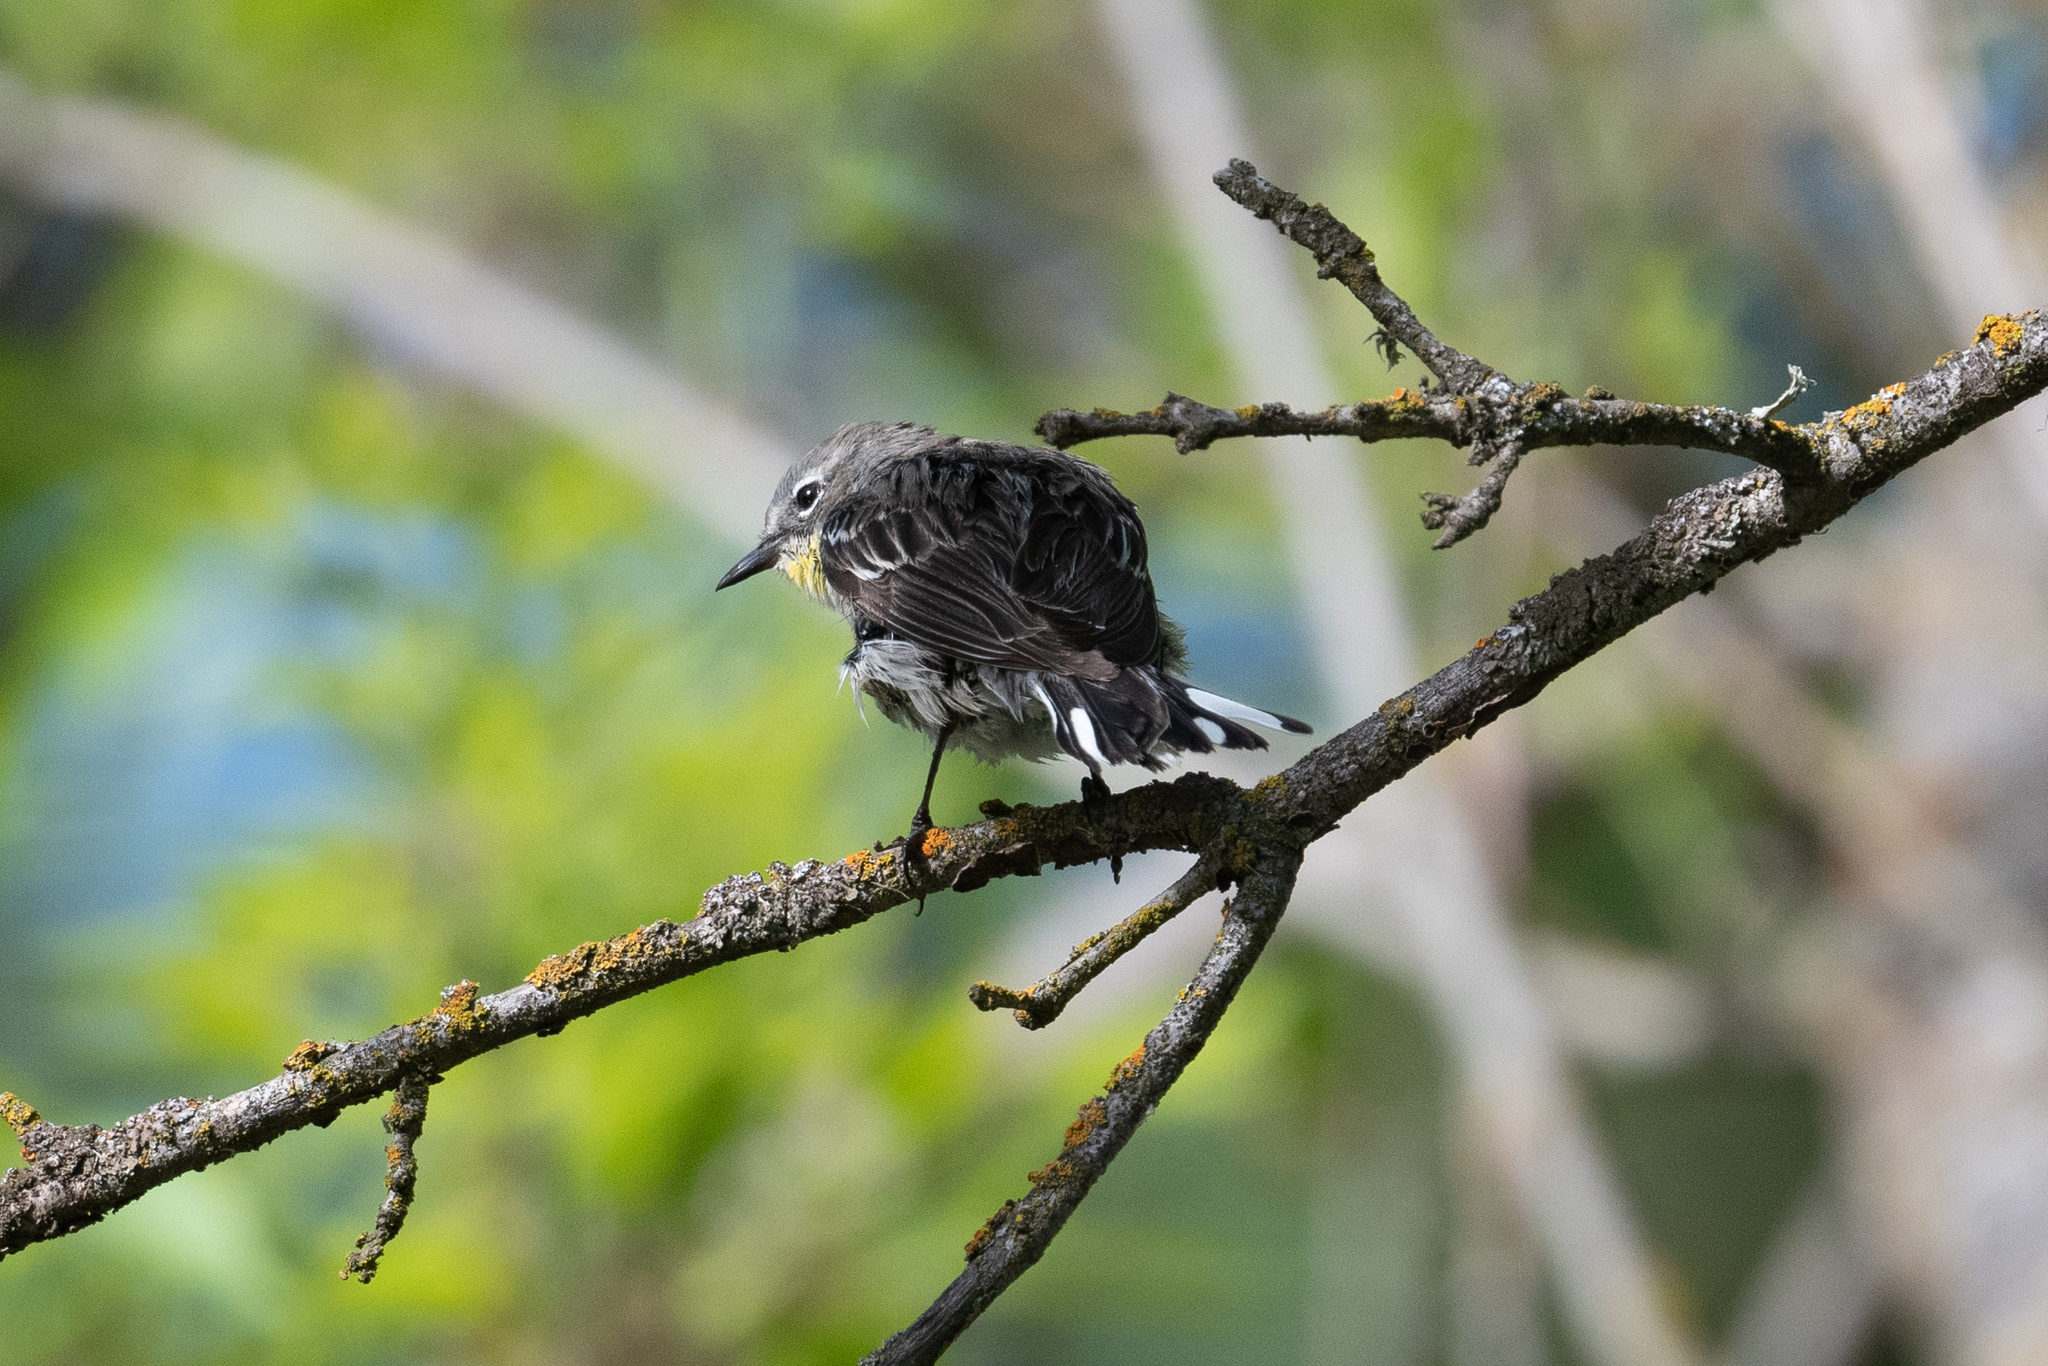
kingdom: Animalia
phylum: Chordata
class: Aves
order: Passeriformes
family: Parulidae
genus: Setophaga
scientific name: Setophaga coronata
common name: Myrtle warbler
